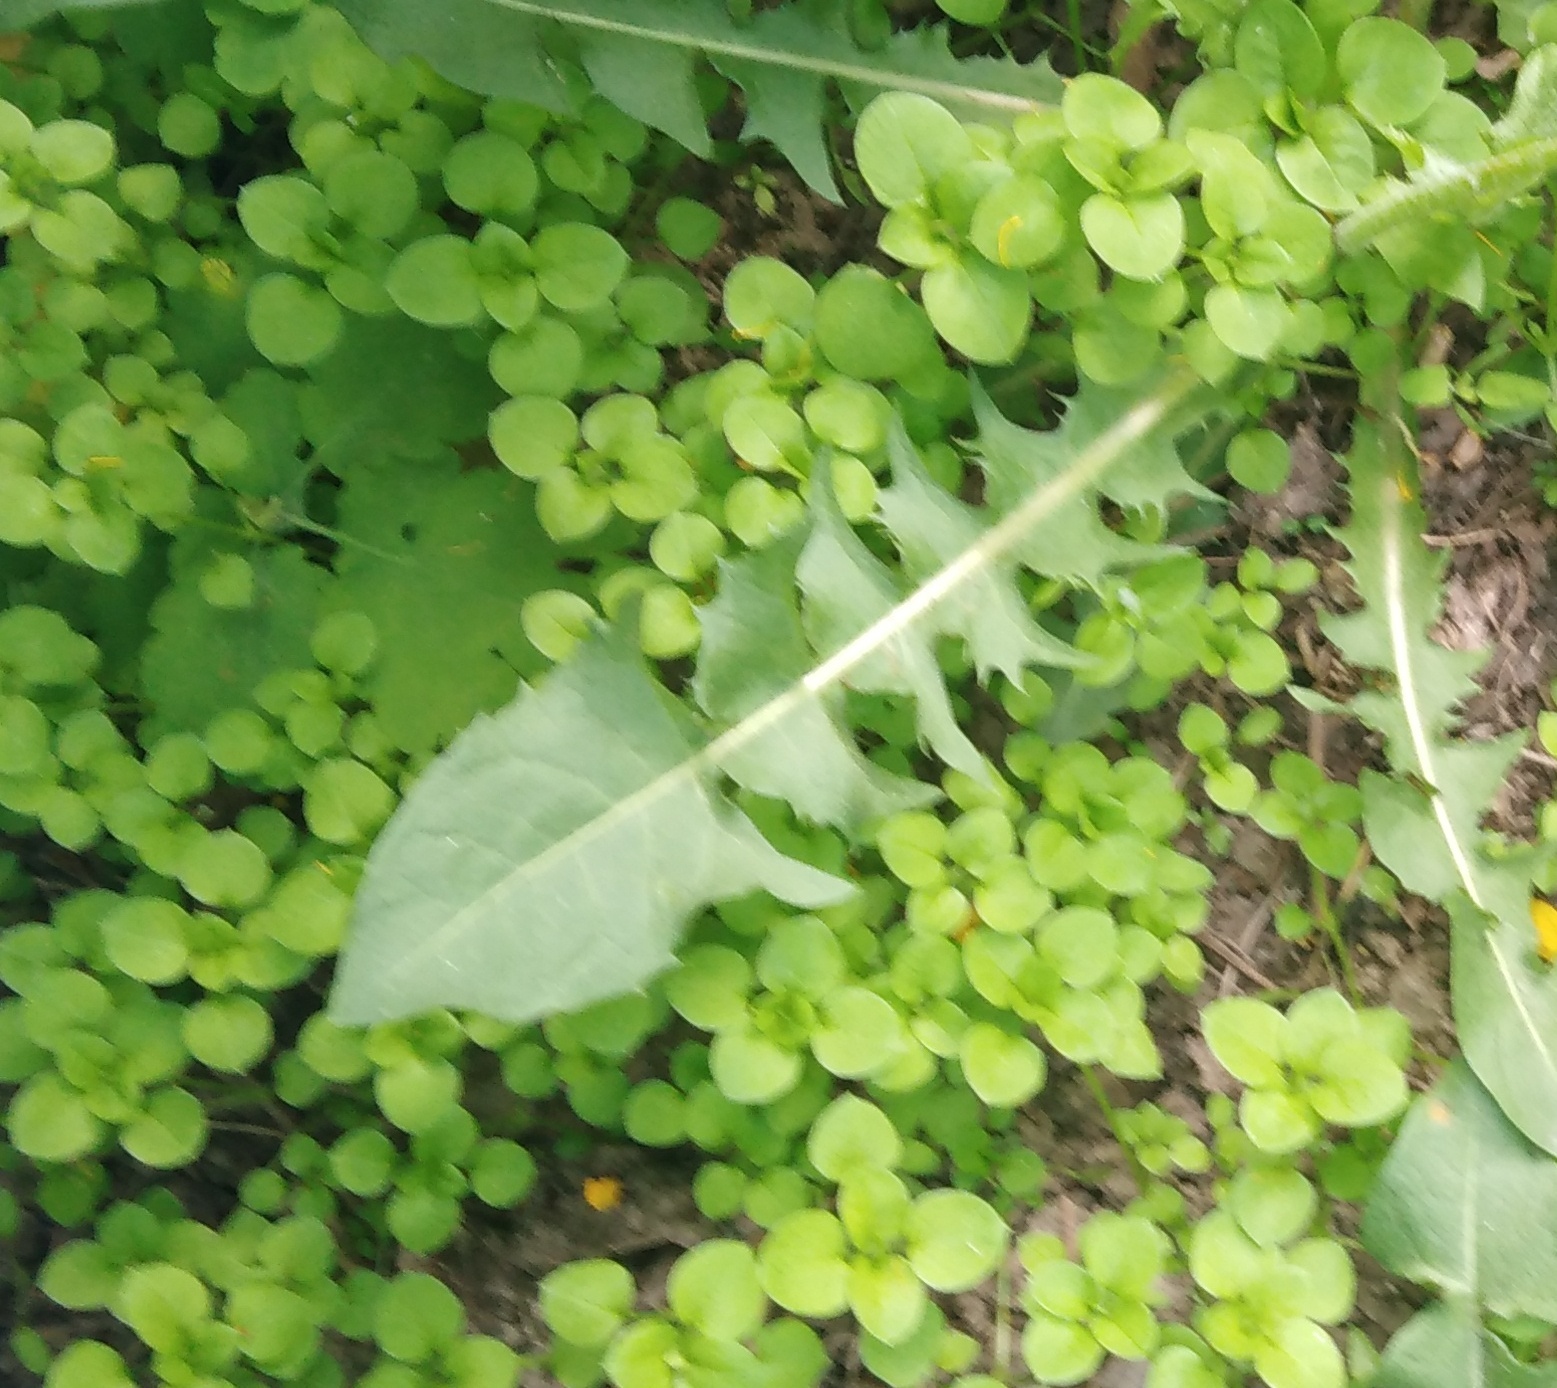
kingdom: Plantae
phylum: Tracheophyta
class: Magnoliopsida
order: Caryophyllales
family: Caryophyllaceae
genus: Stellaria
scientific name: Stellaria media
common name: Common chickweed
